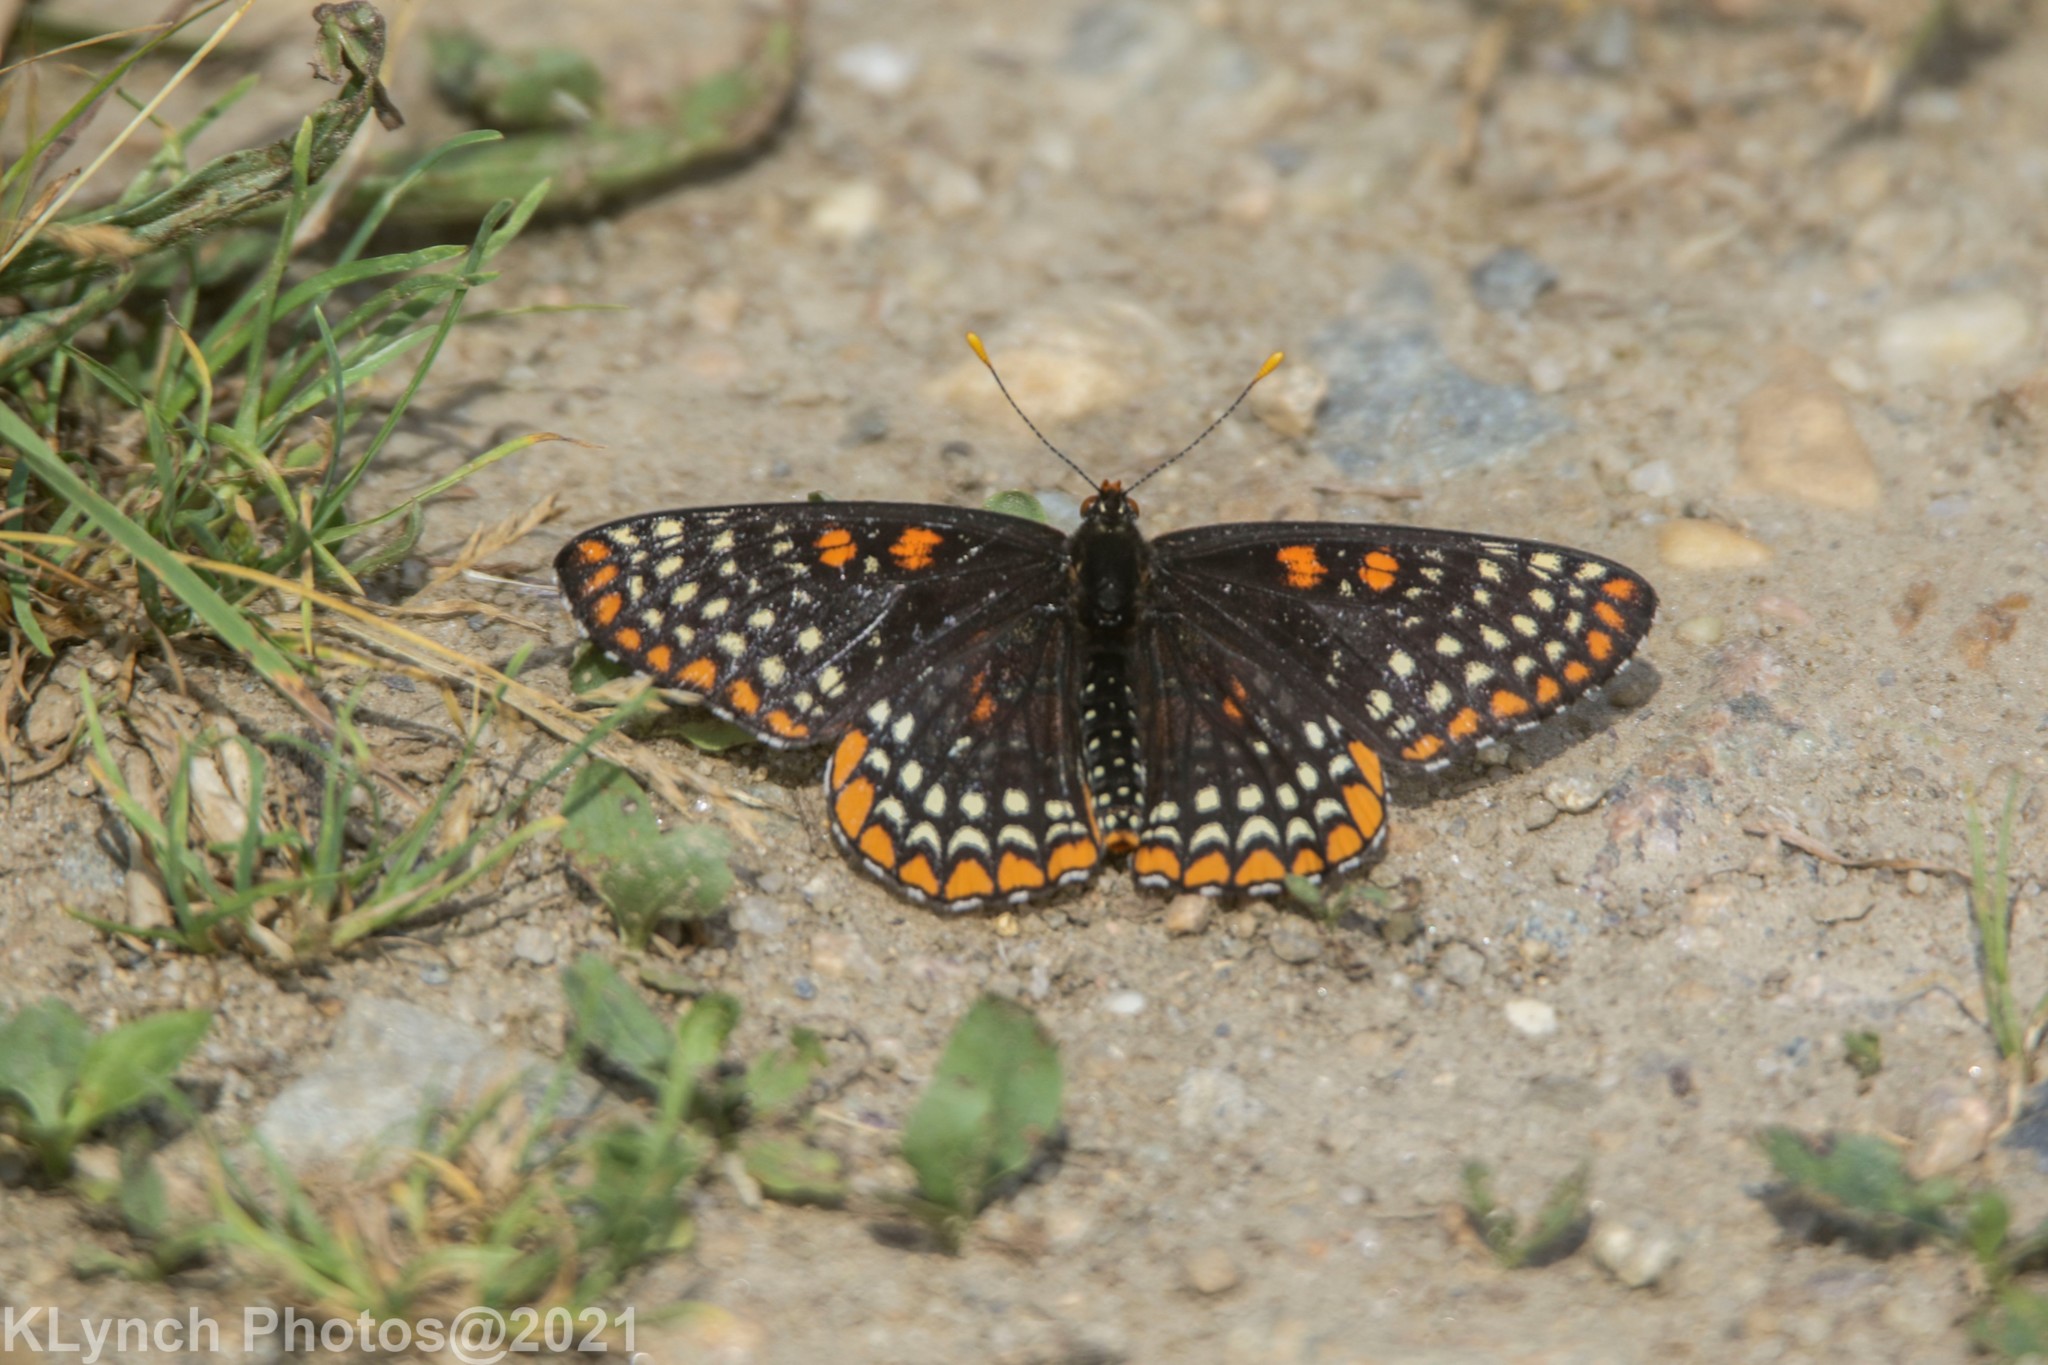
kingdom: Animalia
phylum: Arthropoda
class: Insecta
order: Lepidoptera
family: Nymphalidae
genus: Euphydryas
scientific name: Euphydryas phaeton
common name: Baltimore checkerspot
